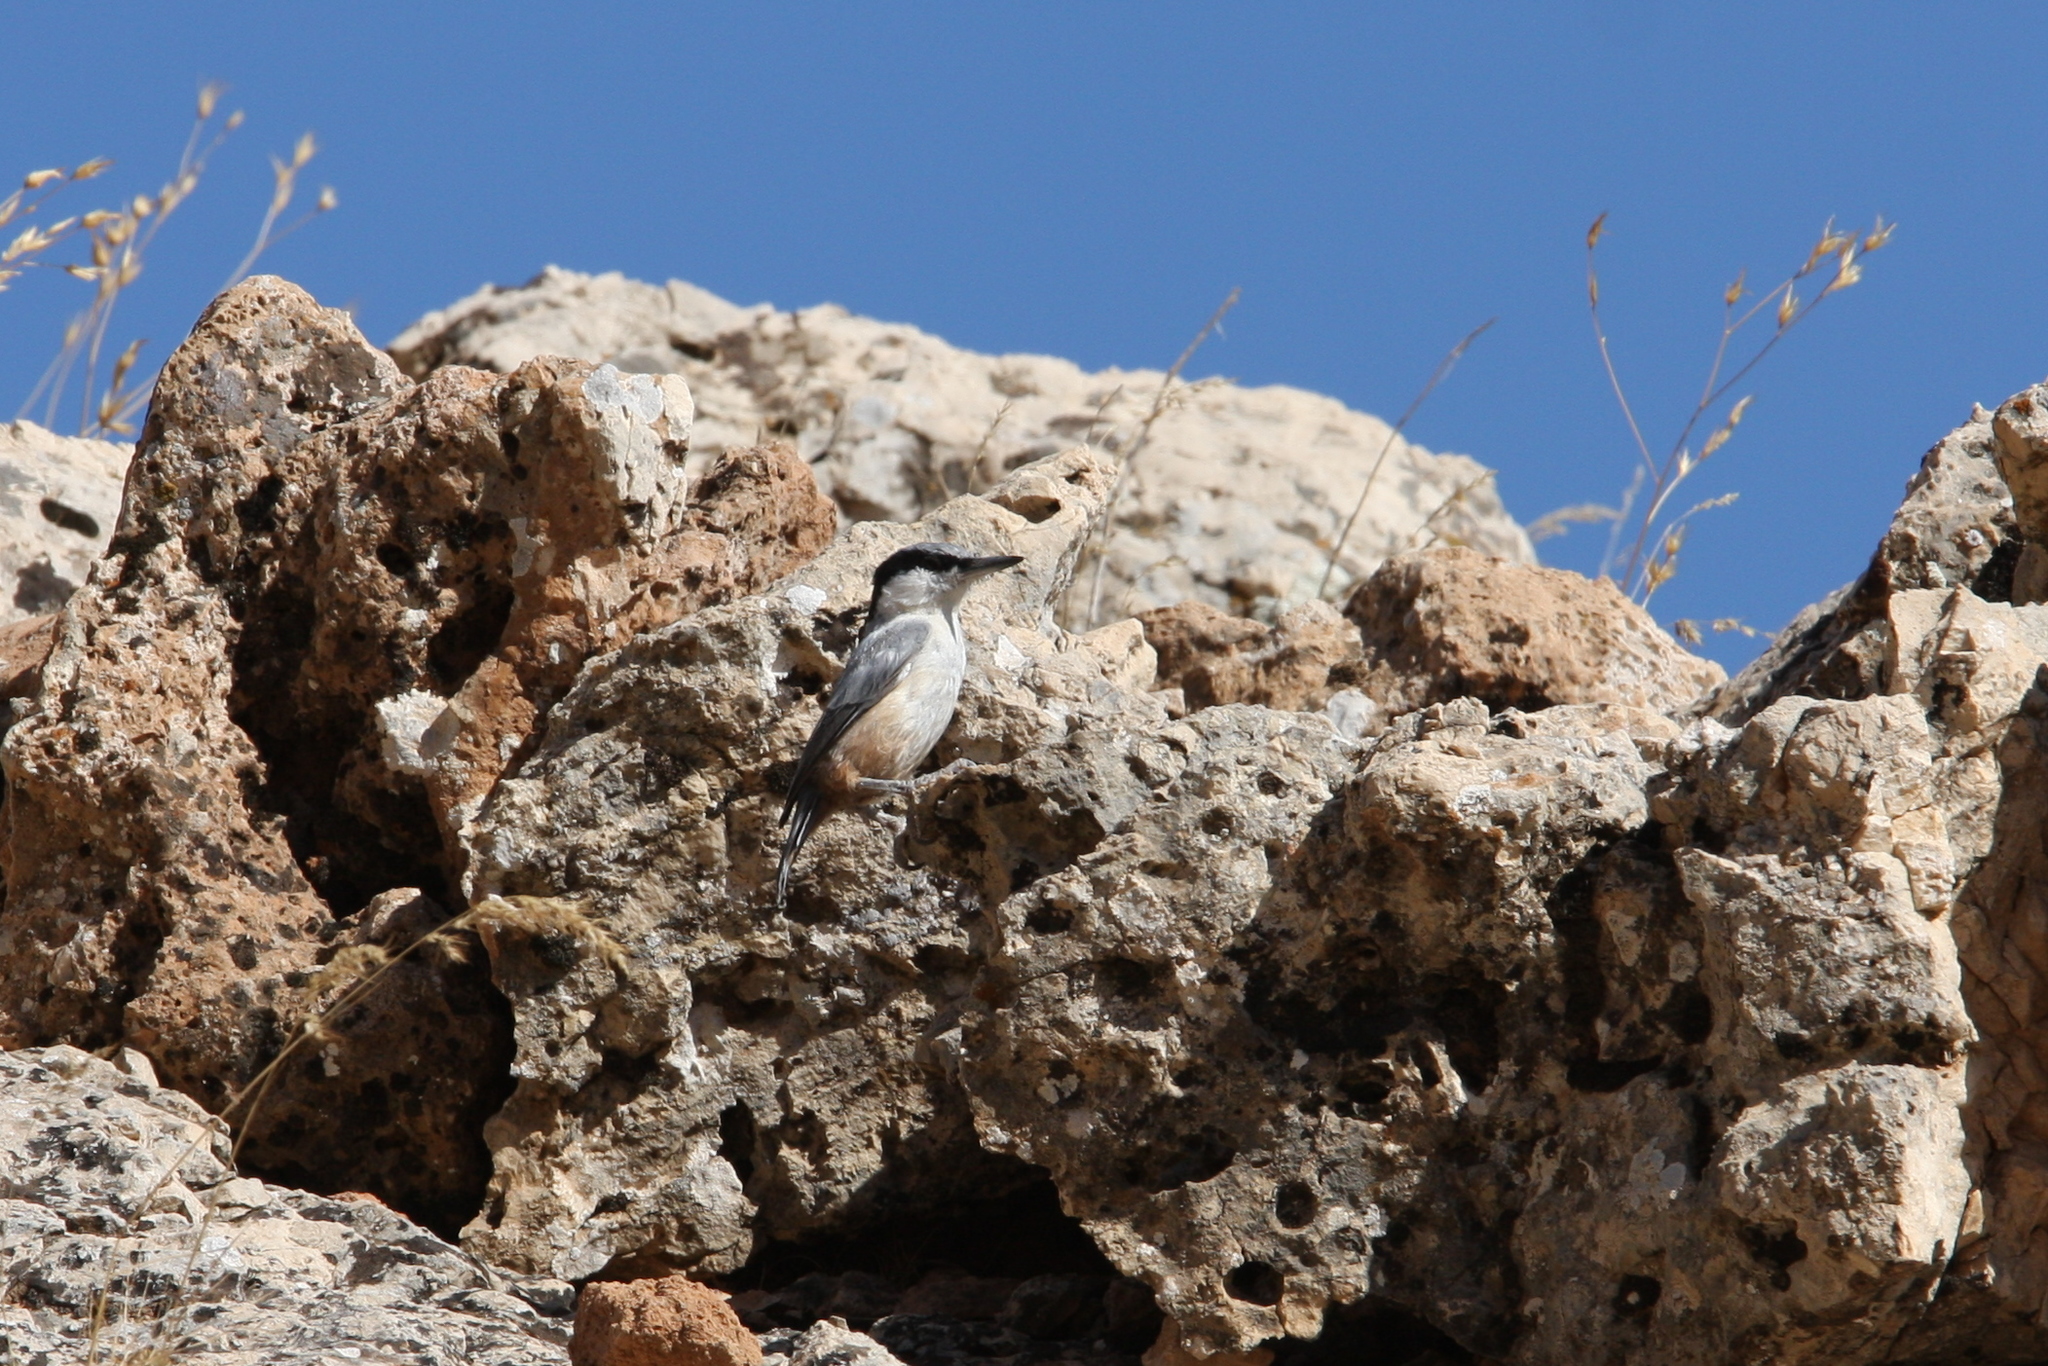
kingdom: Animalia
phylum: Chordata
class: Aves
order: Passeriformes
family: Sittidae
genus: Sitta
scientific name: Sitta tephronota
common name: Eastern rock nuthatch
